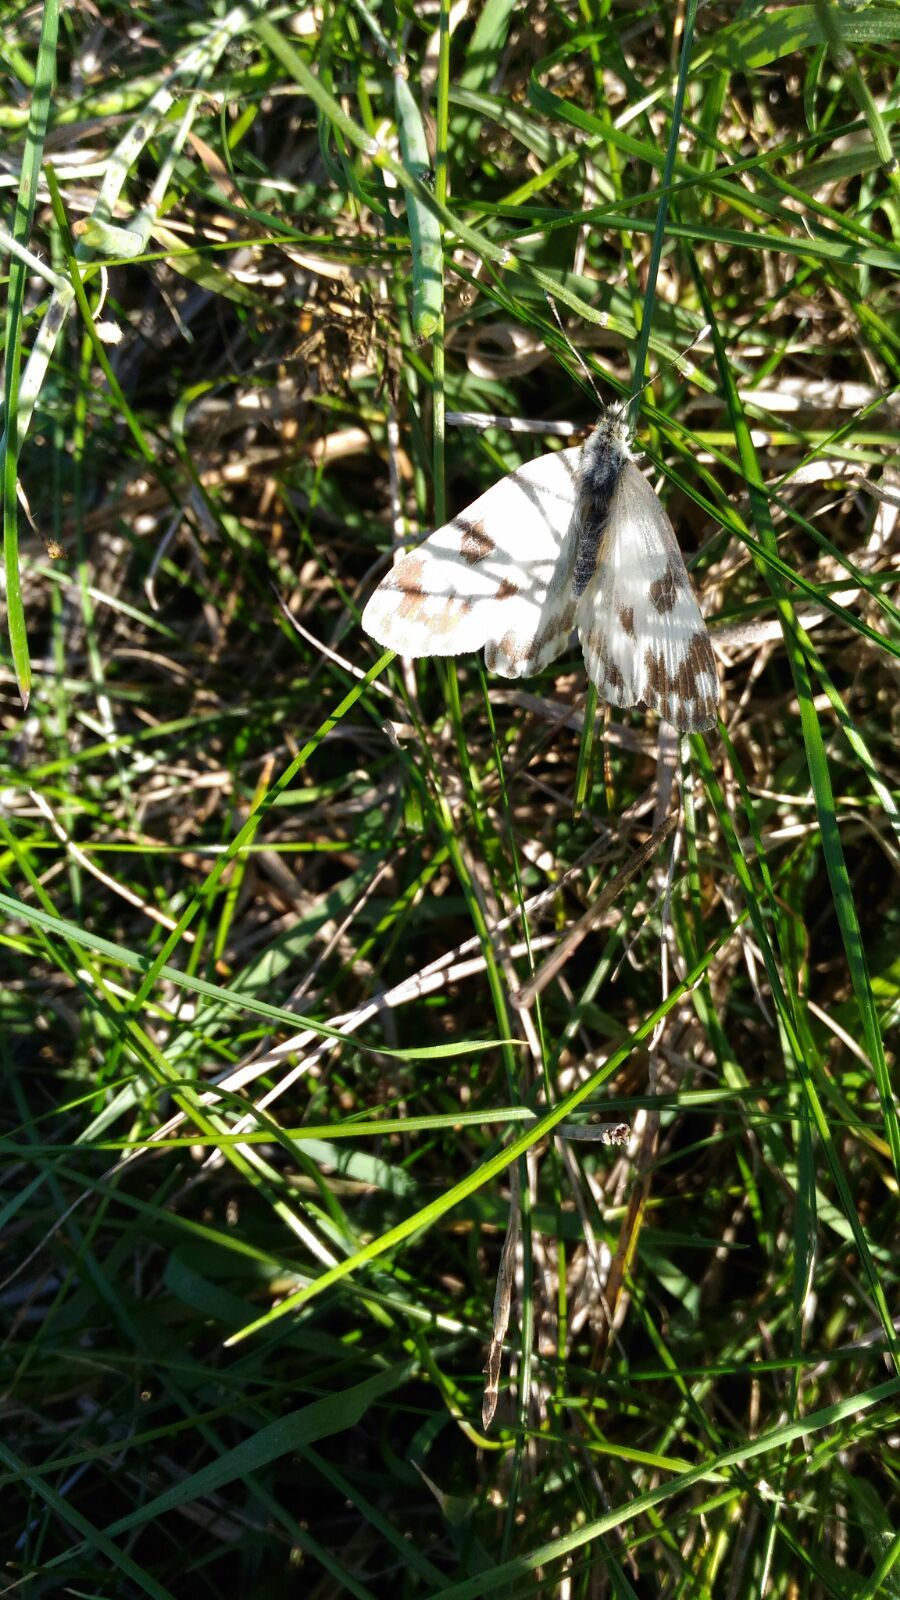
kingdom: Animalia
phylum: Arthropoda
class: Insecta
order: Lepidoptera
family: Pieridae
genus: Pontia
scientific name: Pontia edusa
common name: Eastern bath white
